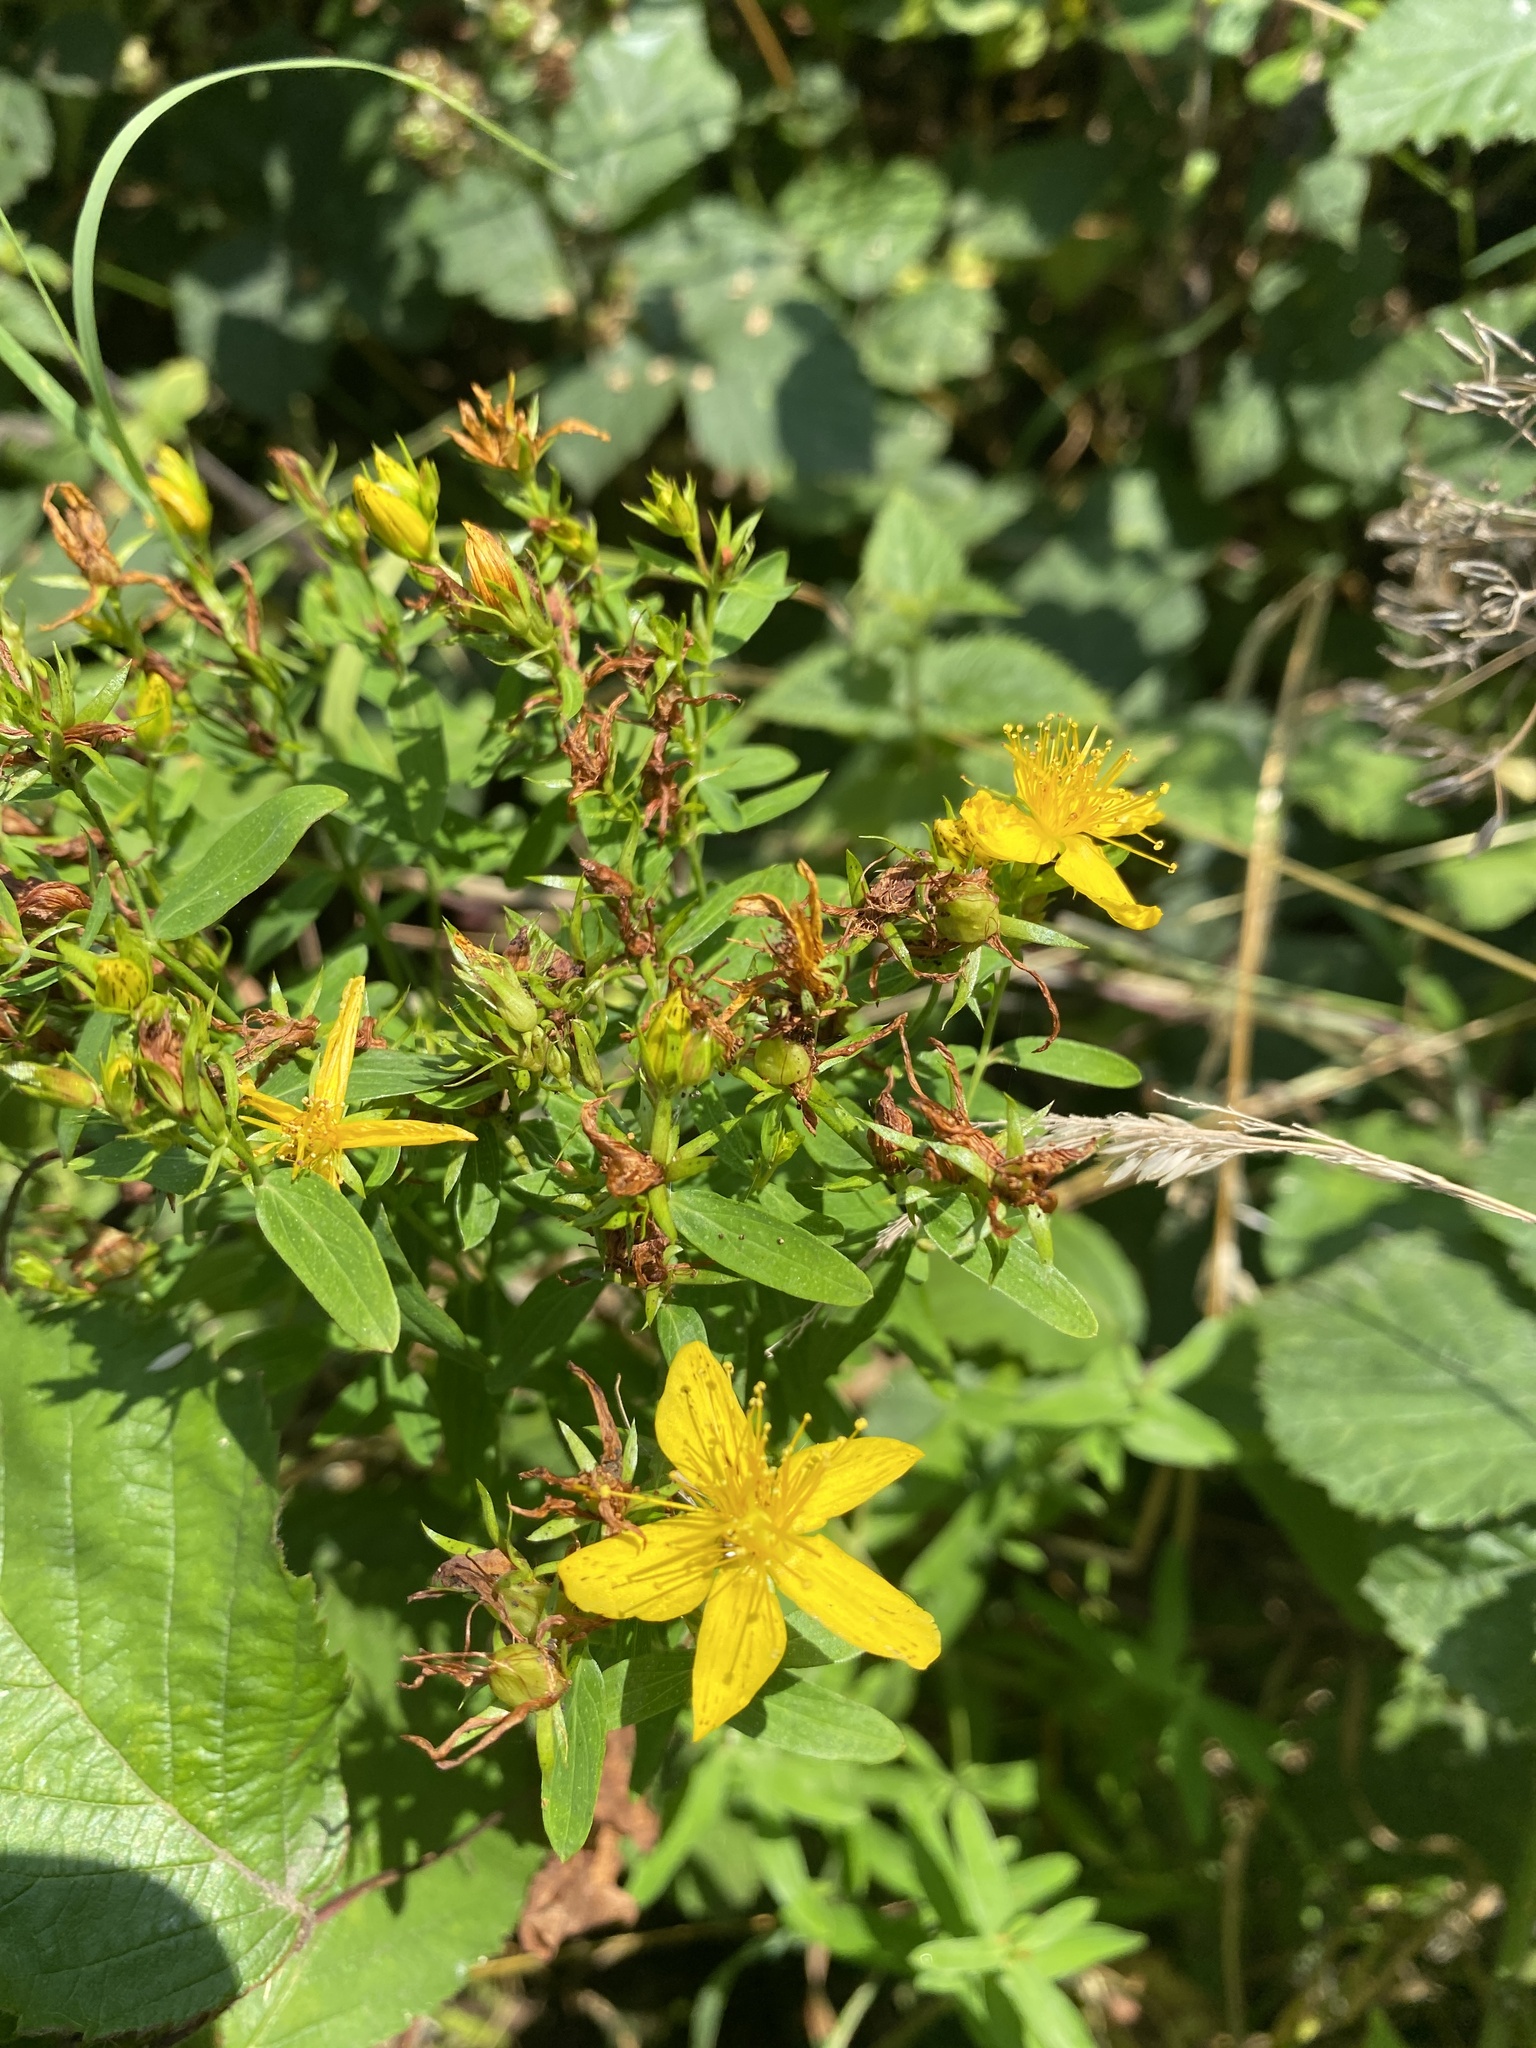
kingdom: Plantae
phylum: Tracheophyta
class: Magnoliopsida
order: Malpighiales
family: Hypericaceae
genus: Hypericum
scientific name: Hypericum perforatum
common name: Common st. johnswort
